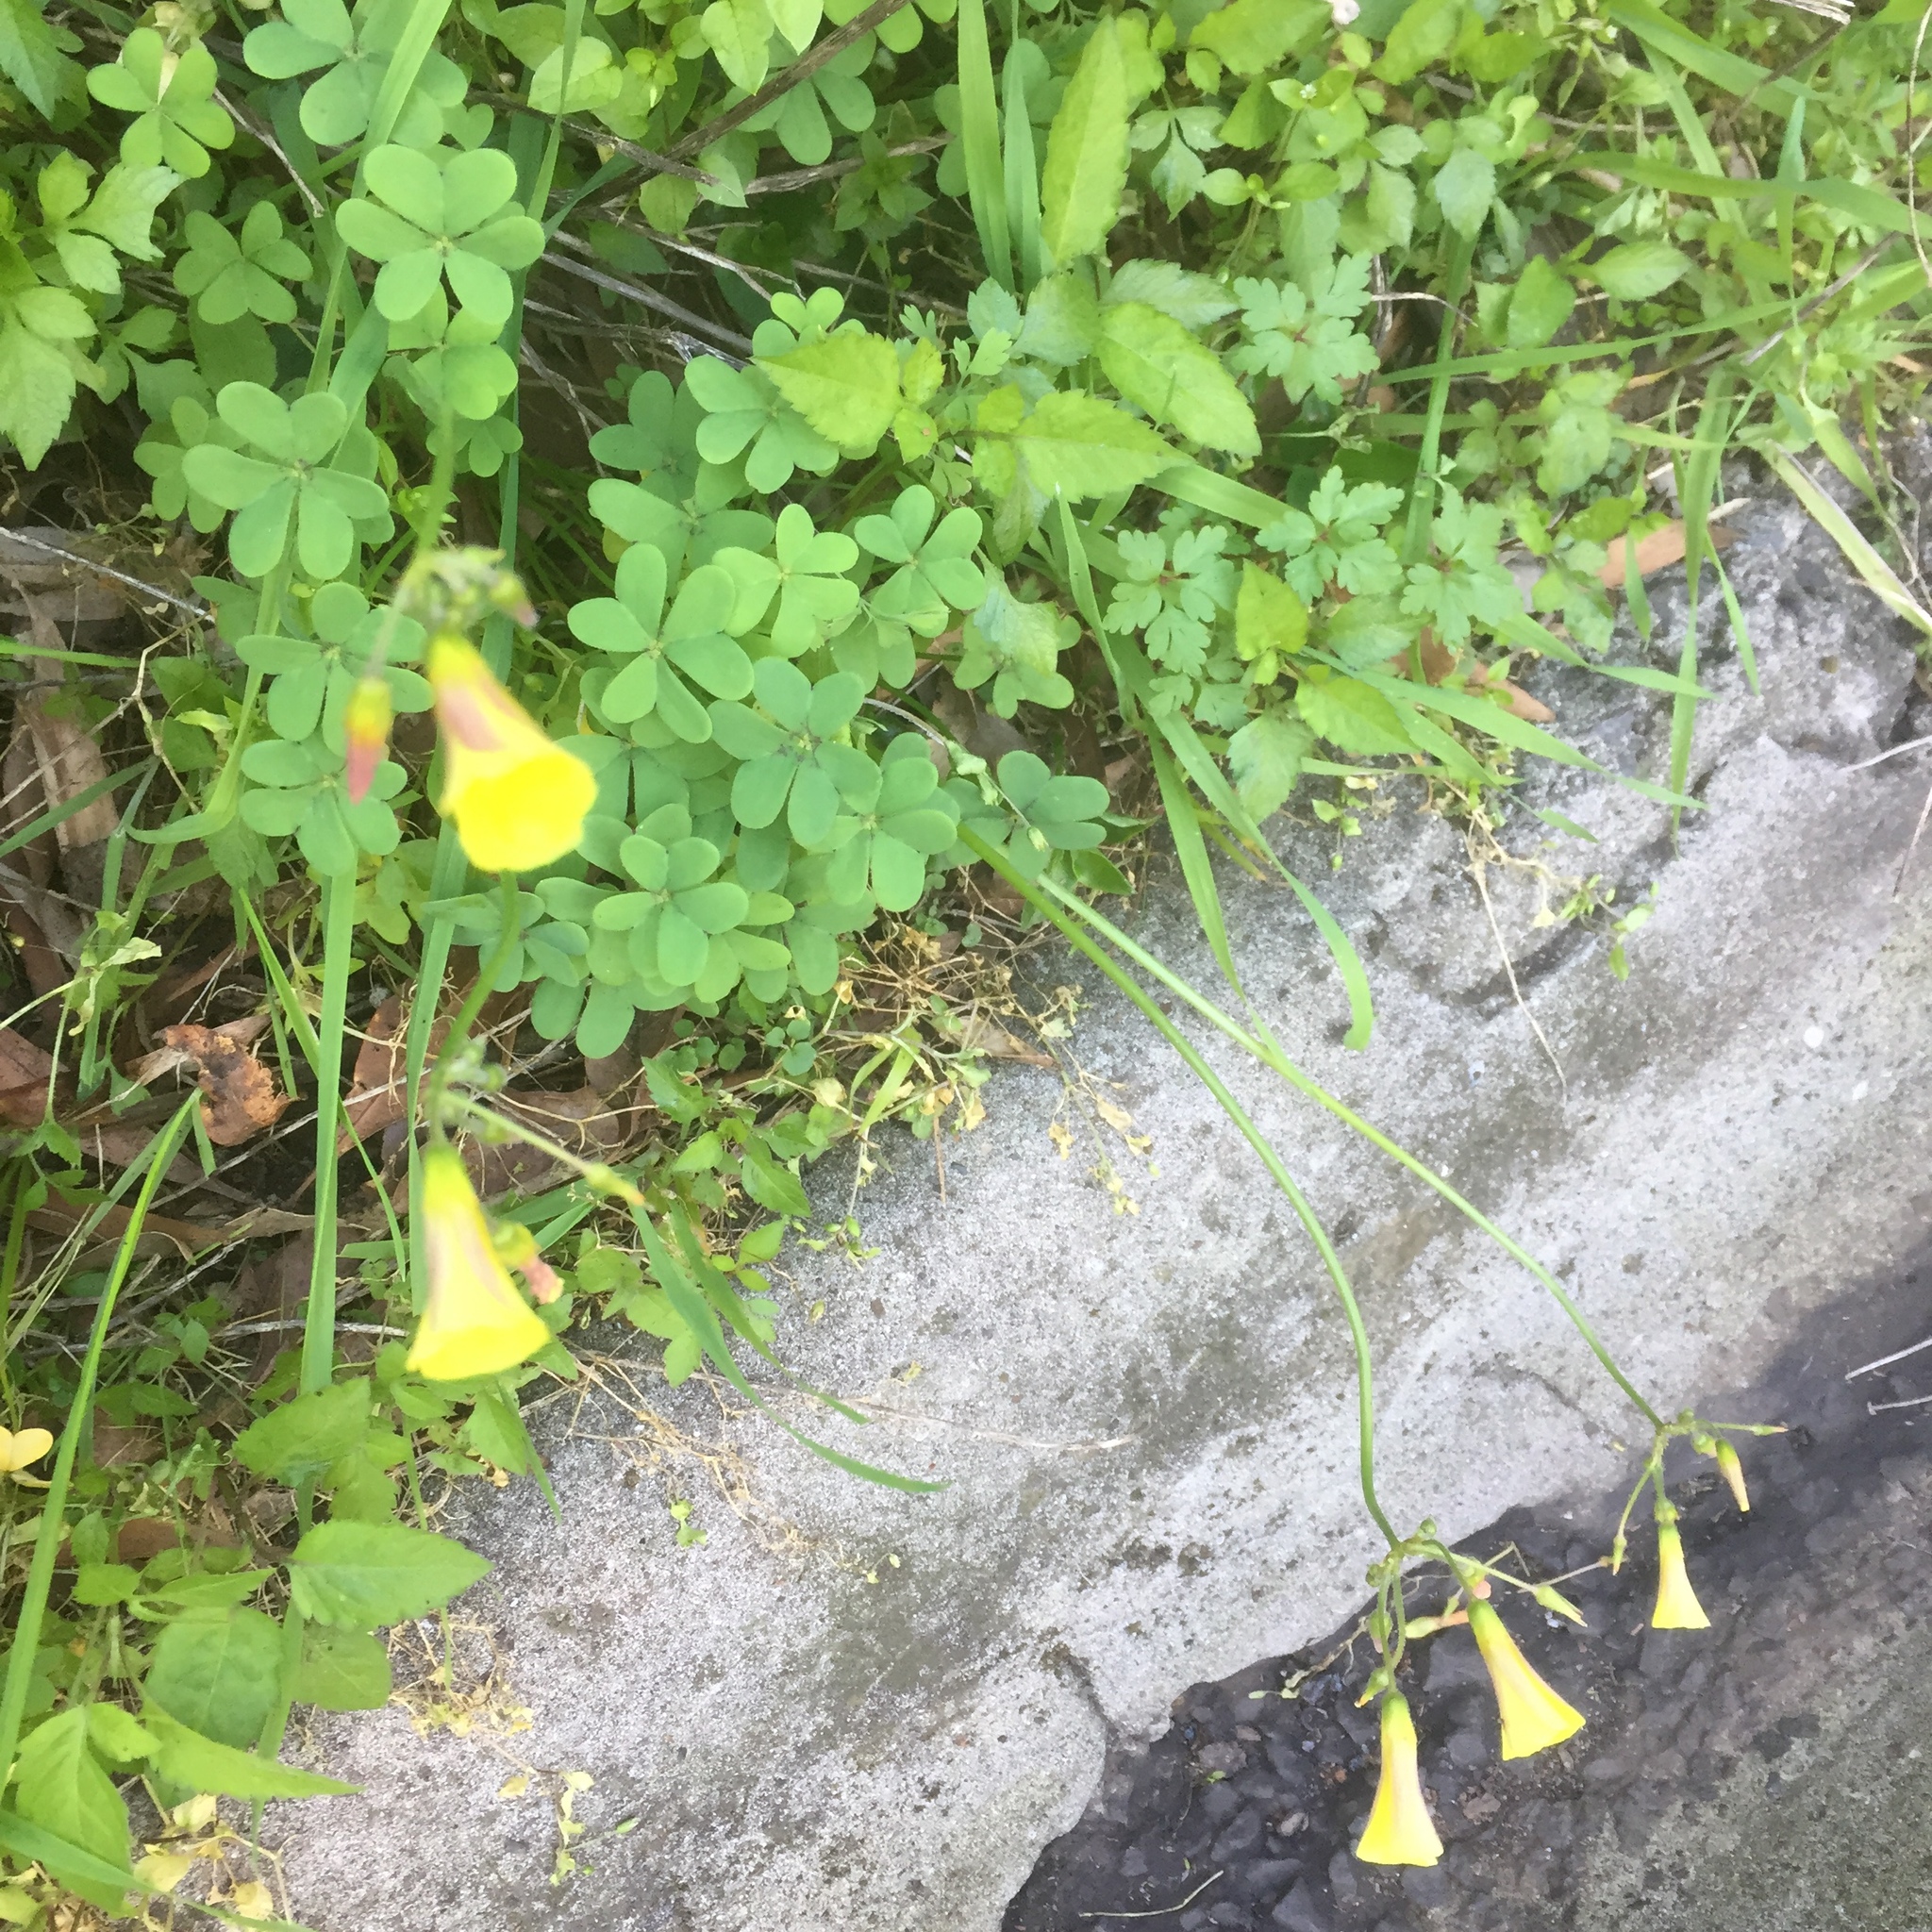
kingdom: Plantae
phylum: Tracheophyta
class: Magnoliopsida
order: Oxalidales
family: Oxalidaceae
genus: Oxalis
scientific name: Oxalis pes-caprae
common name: Bermuda-buttercup
